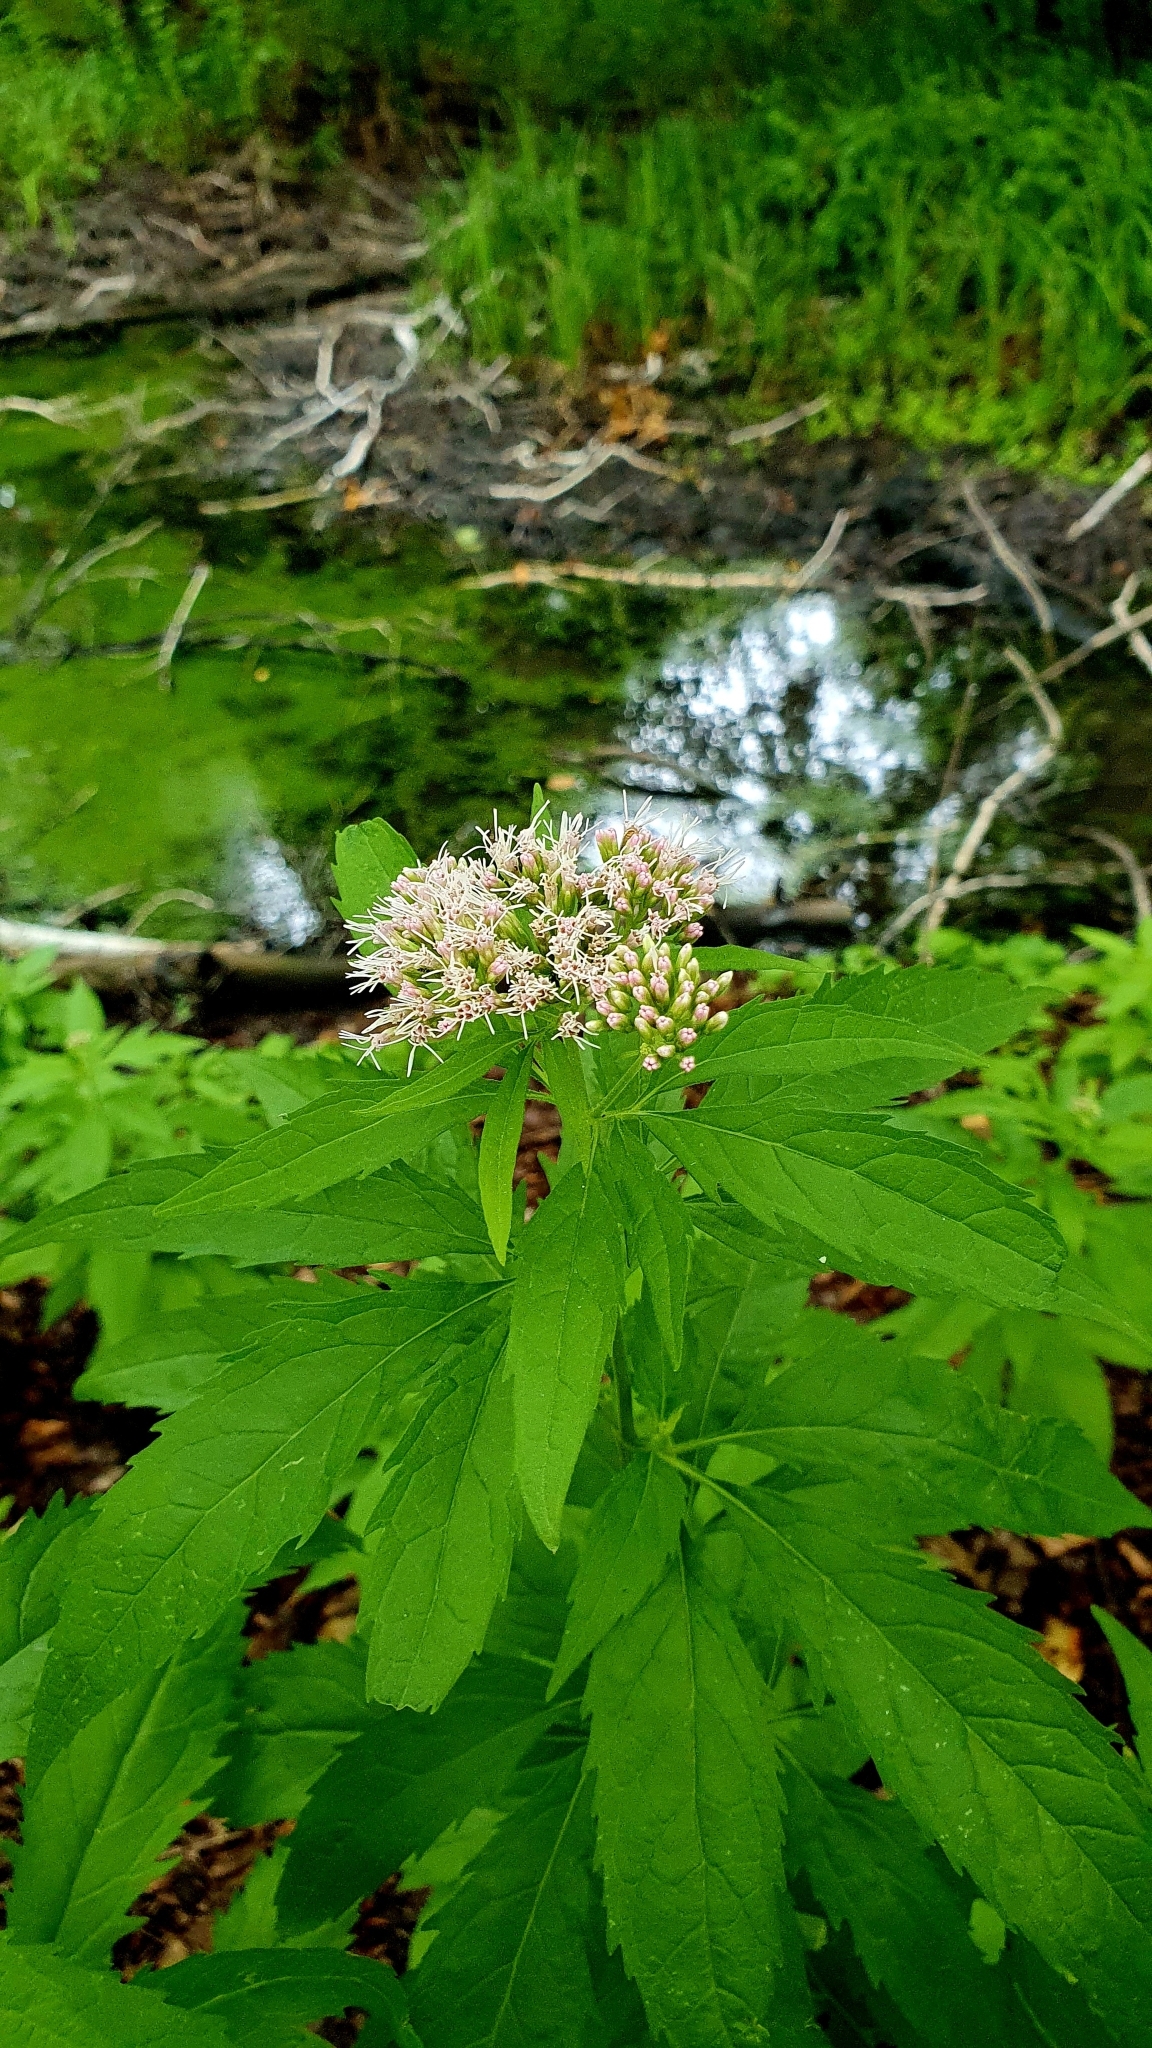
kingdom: Plantae
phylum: Tracheophyta
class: Magnoliopsida
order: Asterales
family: Asteraceae
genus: Eupatorium
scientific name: Eupatorium cannabinum
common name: Hemp-agrimony
